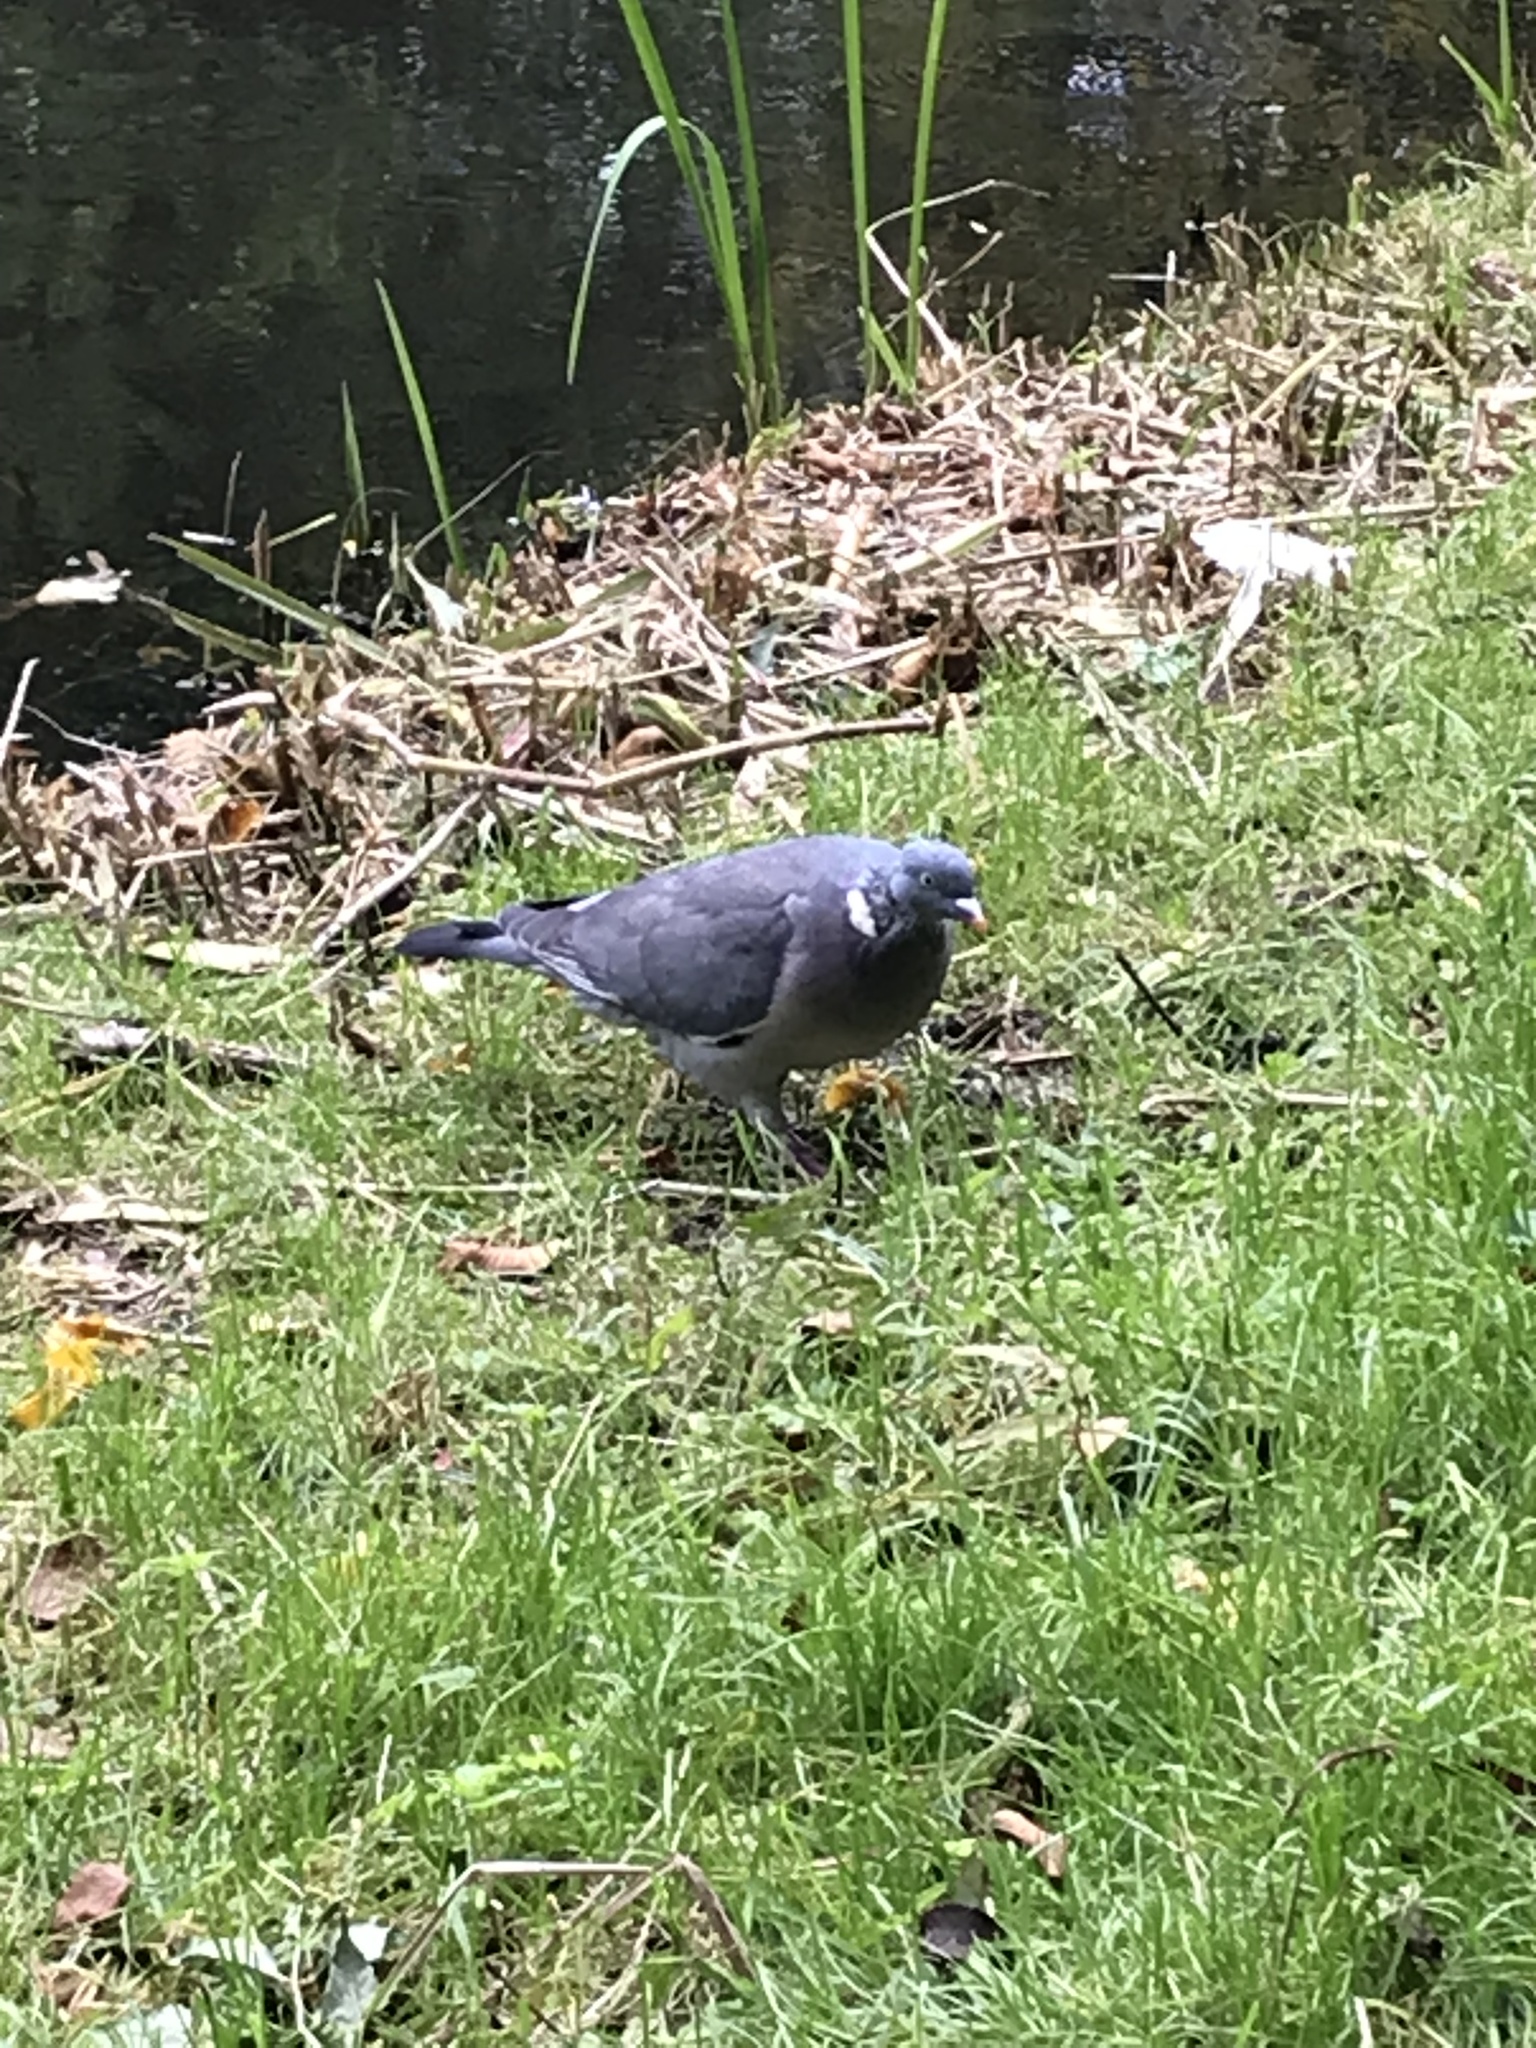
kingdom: Animalia
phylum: Chordata
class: Aves
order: Columbiformes
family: Columbidae
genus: Columba
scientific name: Columba palumbus
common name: Common wood pigeon
